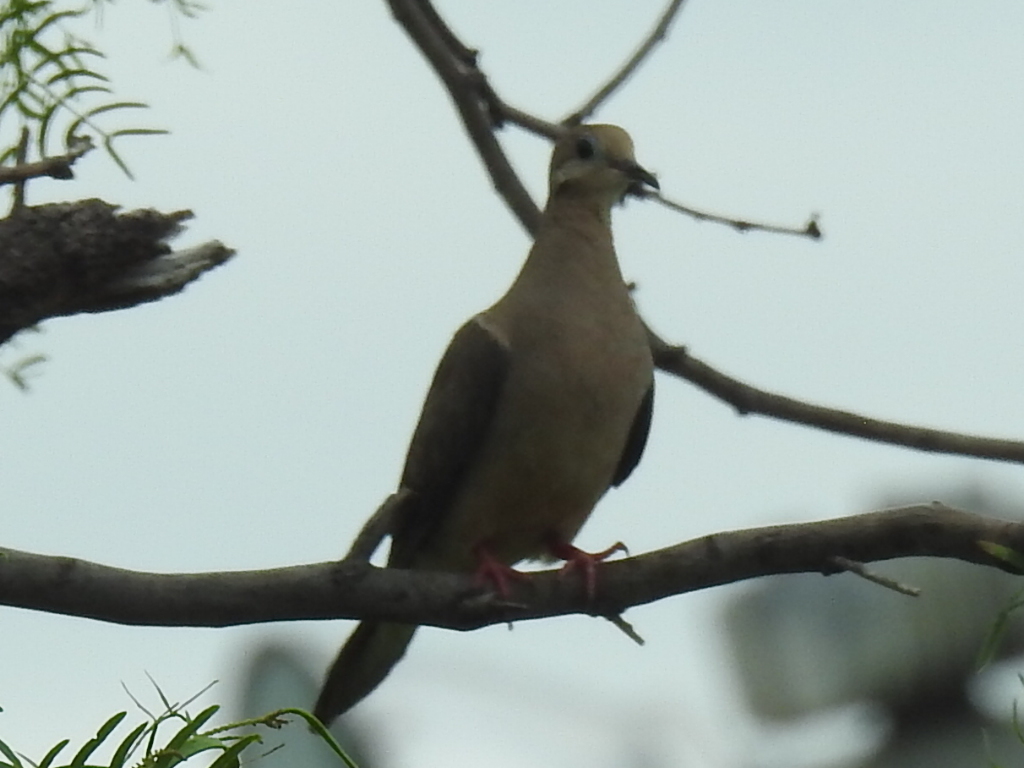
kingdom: Animalia
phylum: Chordata
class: Aves
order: Columbiformes
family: Columbidae
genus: Zenaida
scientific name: Zenaida macroura
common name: Mourning dove
